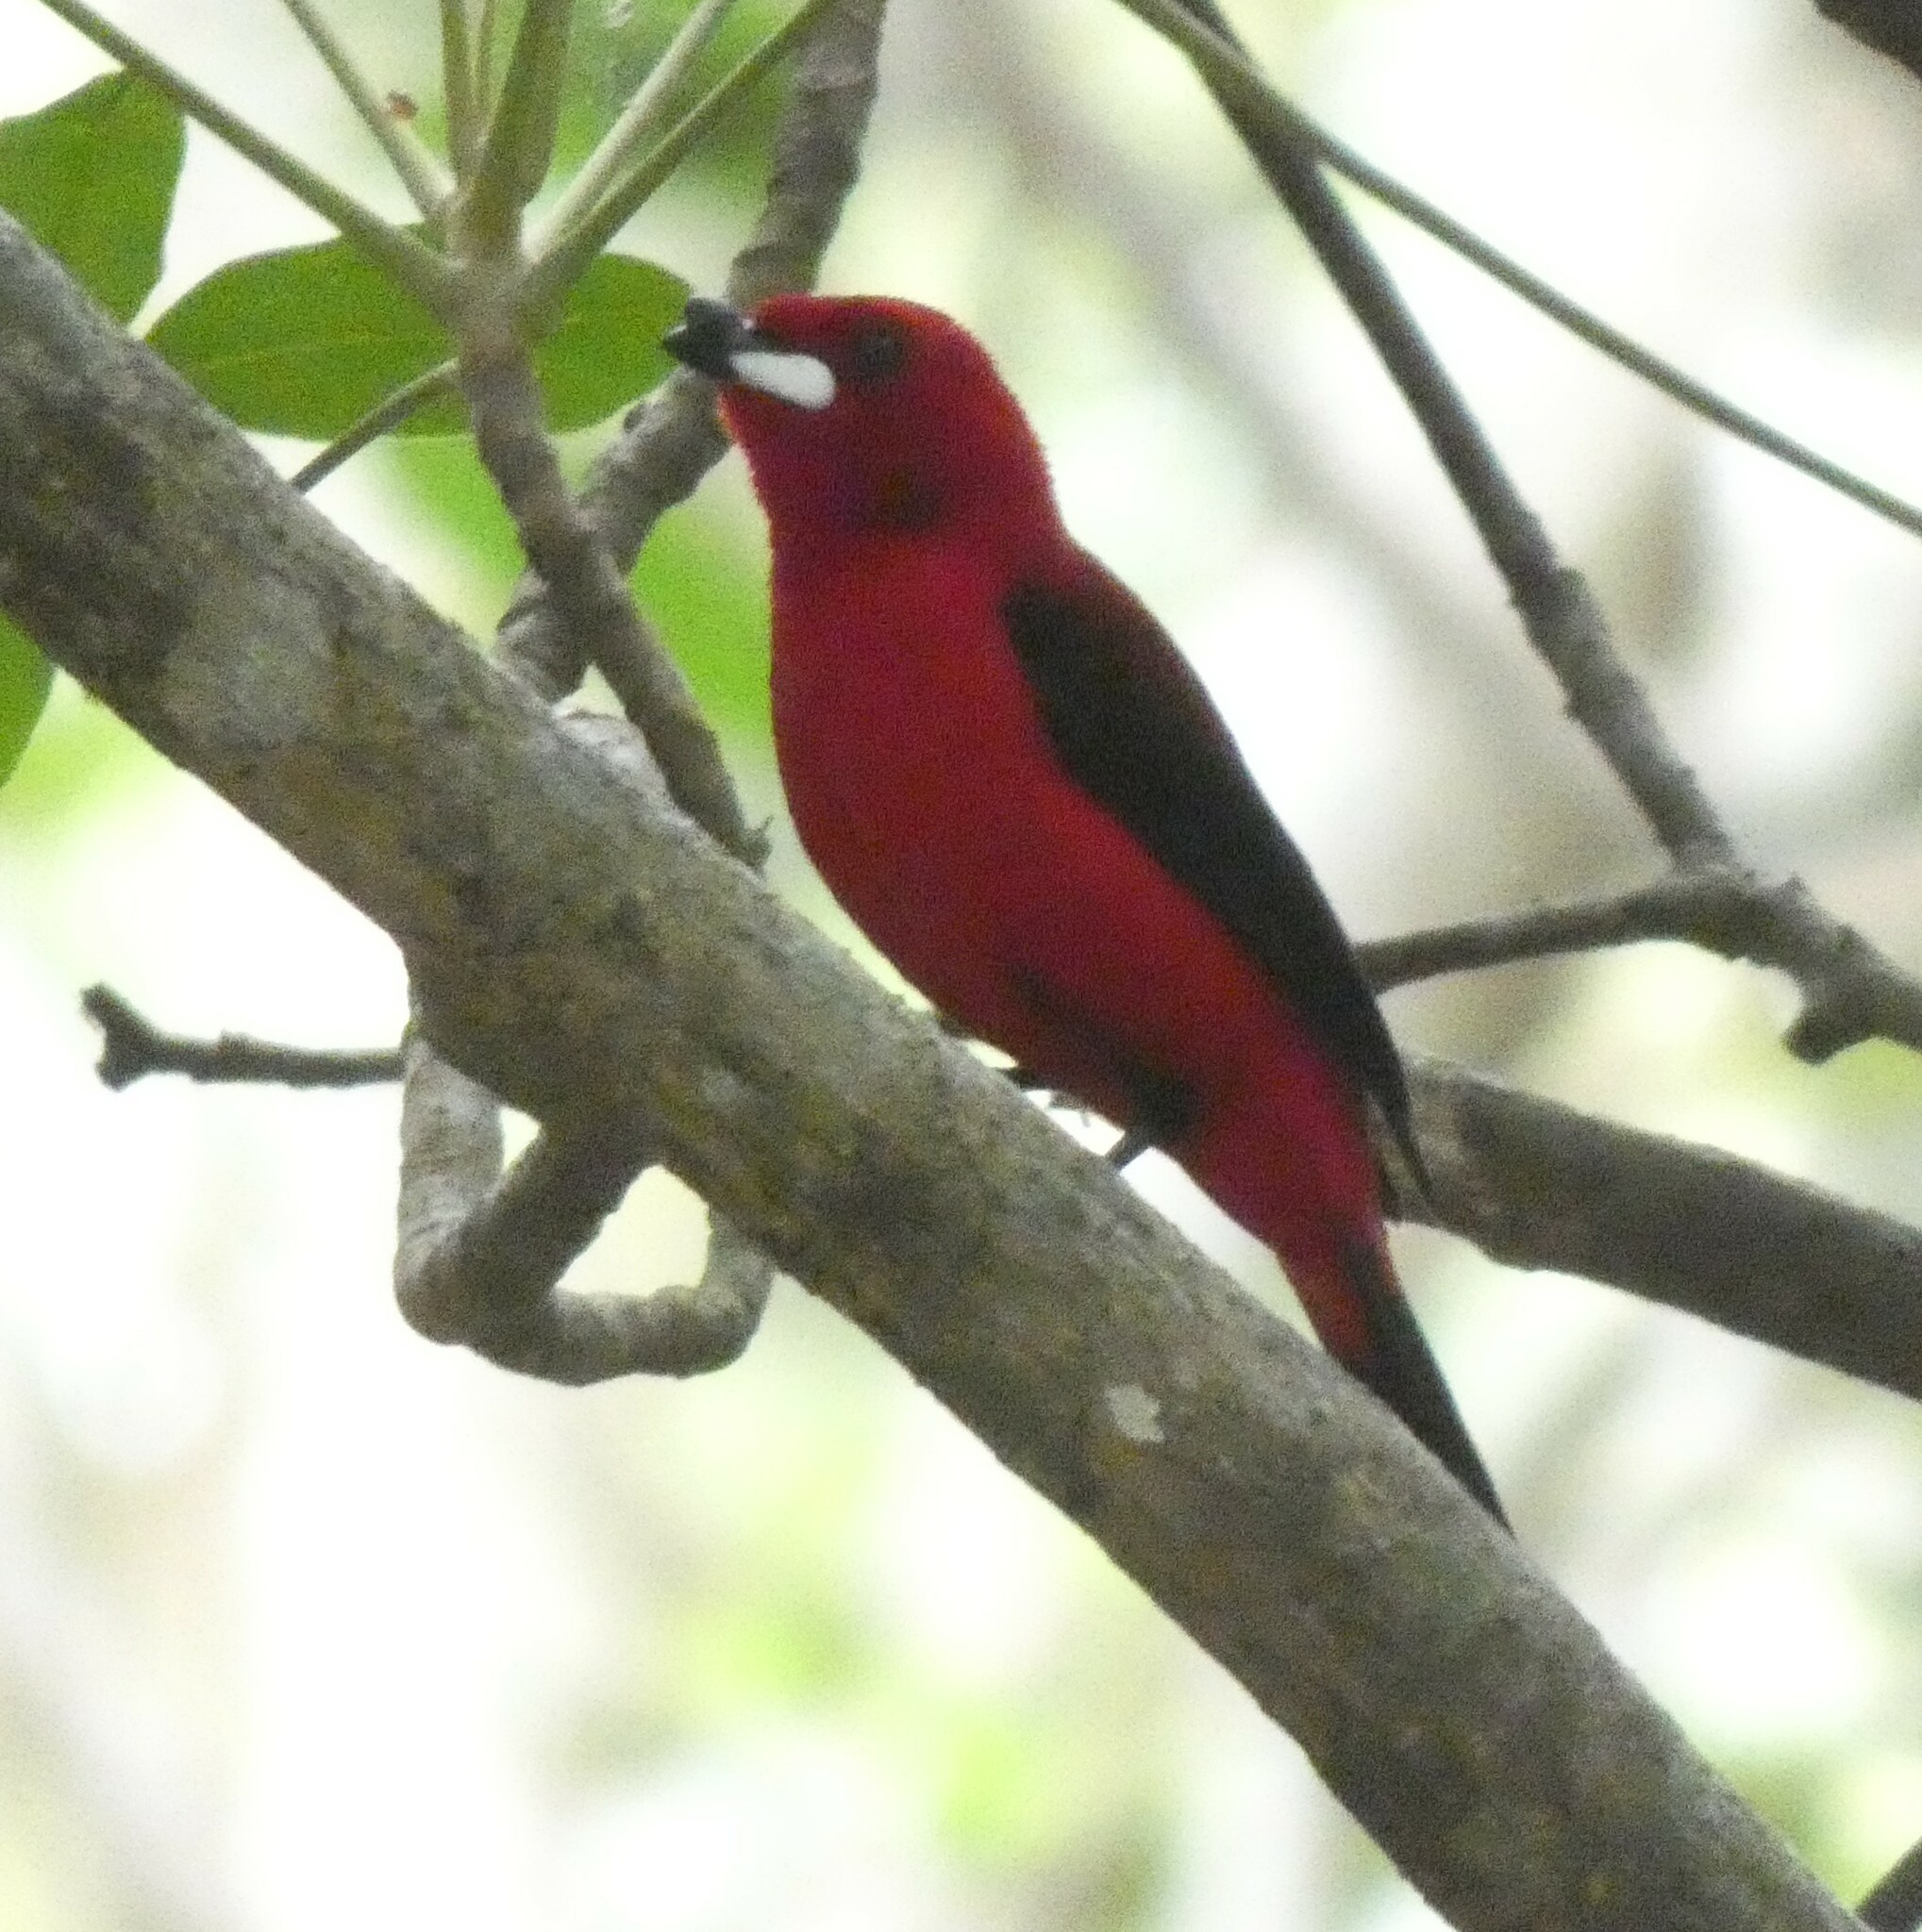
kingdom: Animalia
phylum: Chordata
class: Aves
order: Passeriformes
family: Thraupidae
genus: Ramphocelus
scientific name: Ramphocelus bresilia
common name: Brazilian tanager
